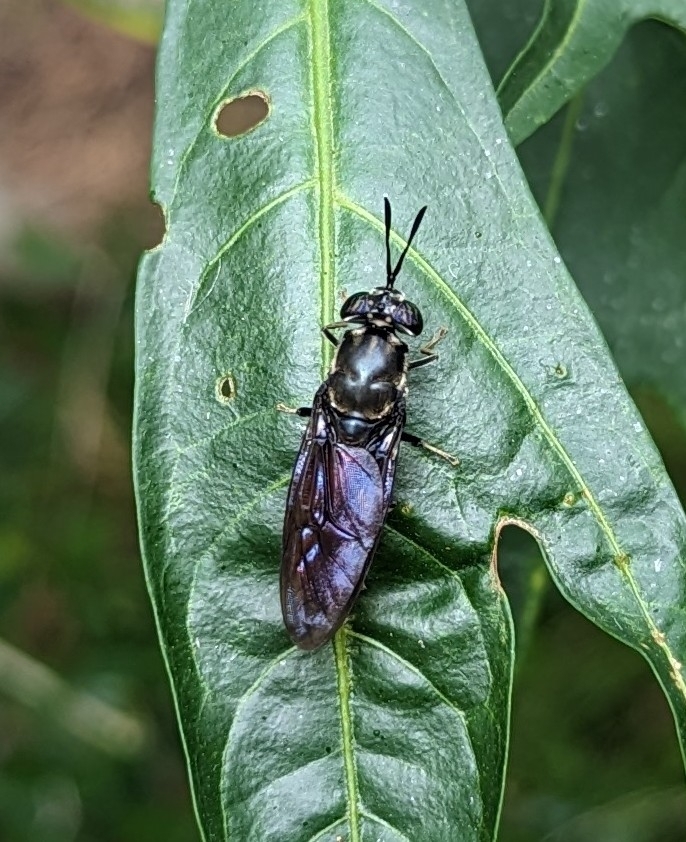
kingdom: Animalia
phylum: Arthropoda
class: Insecta
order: Diptera
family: Stratiomyidae
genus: Hermetia
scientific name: Hermetia illucens
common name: Black soldier fly
